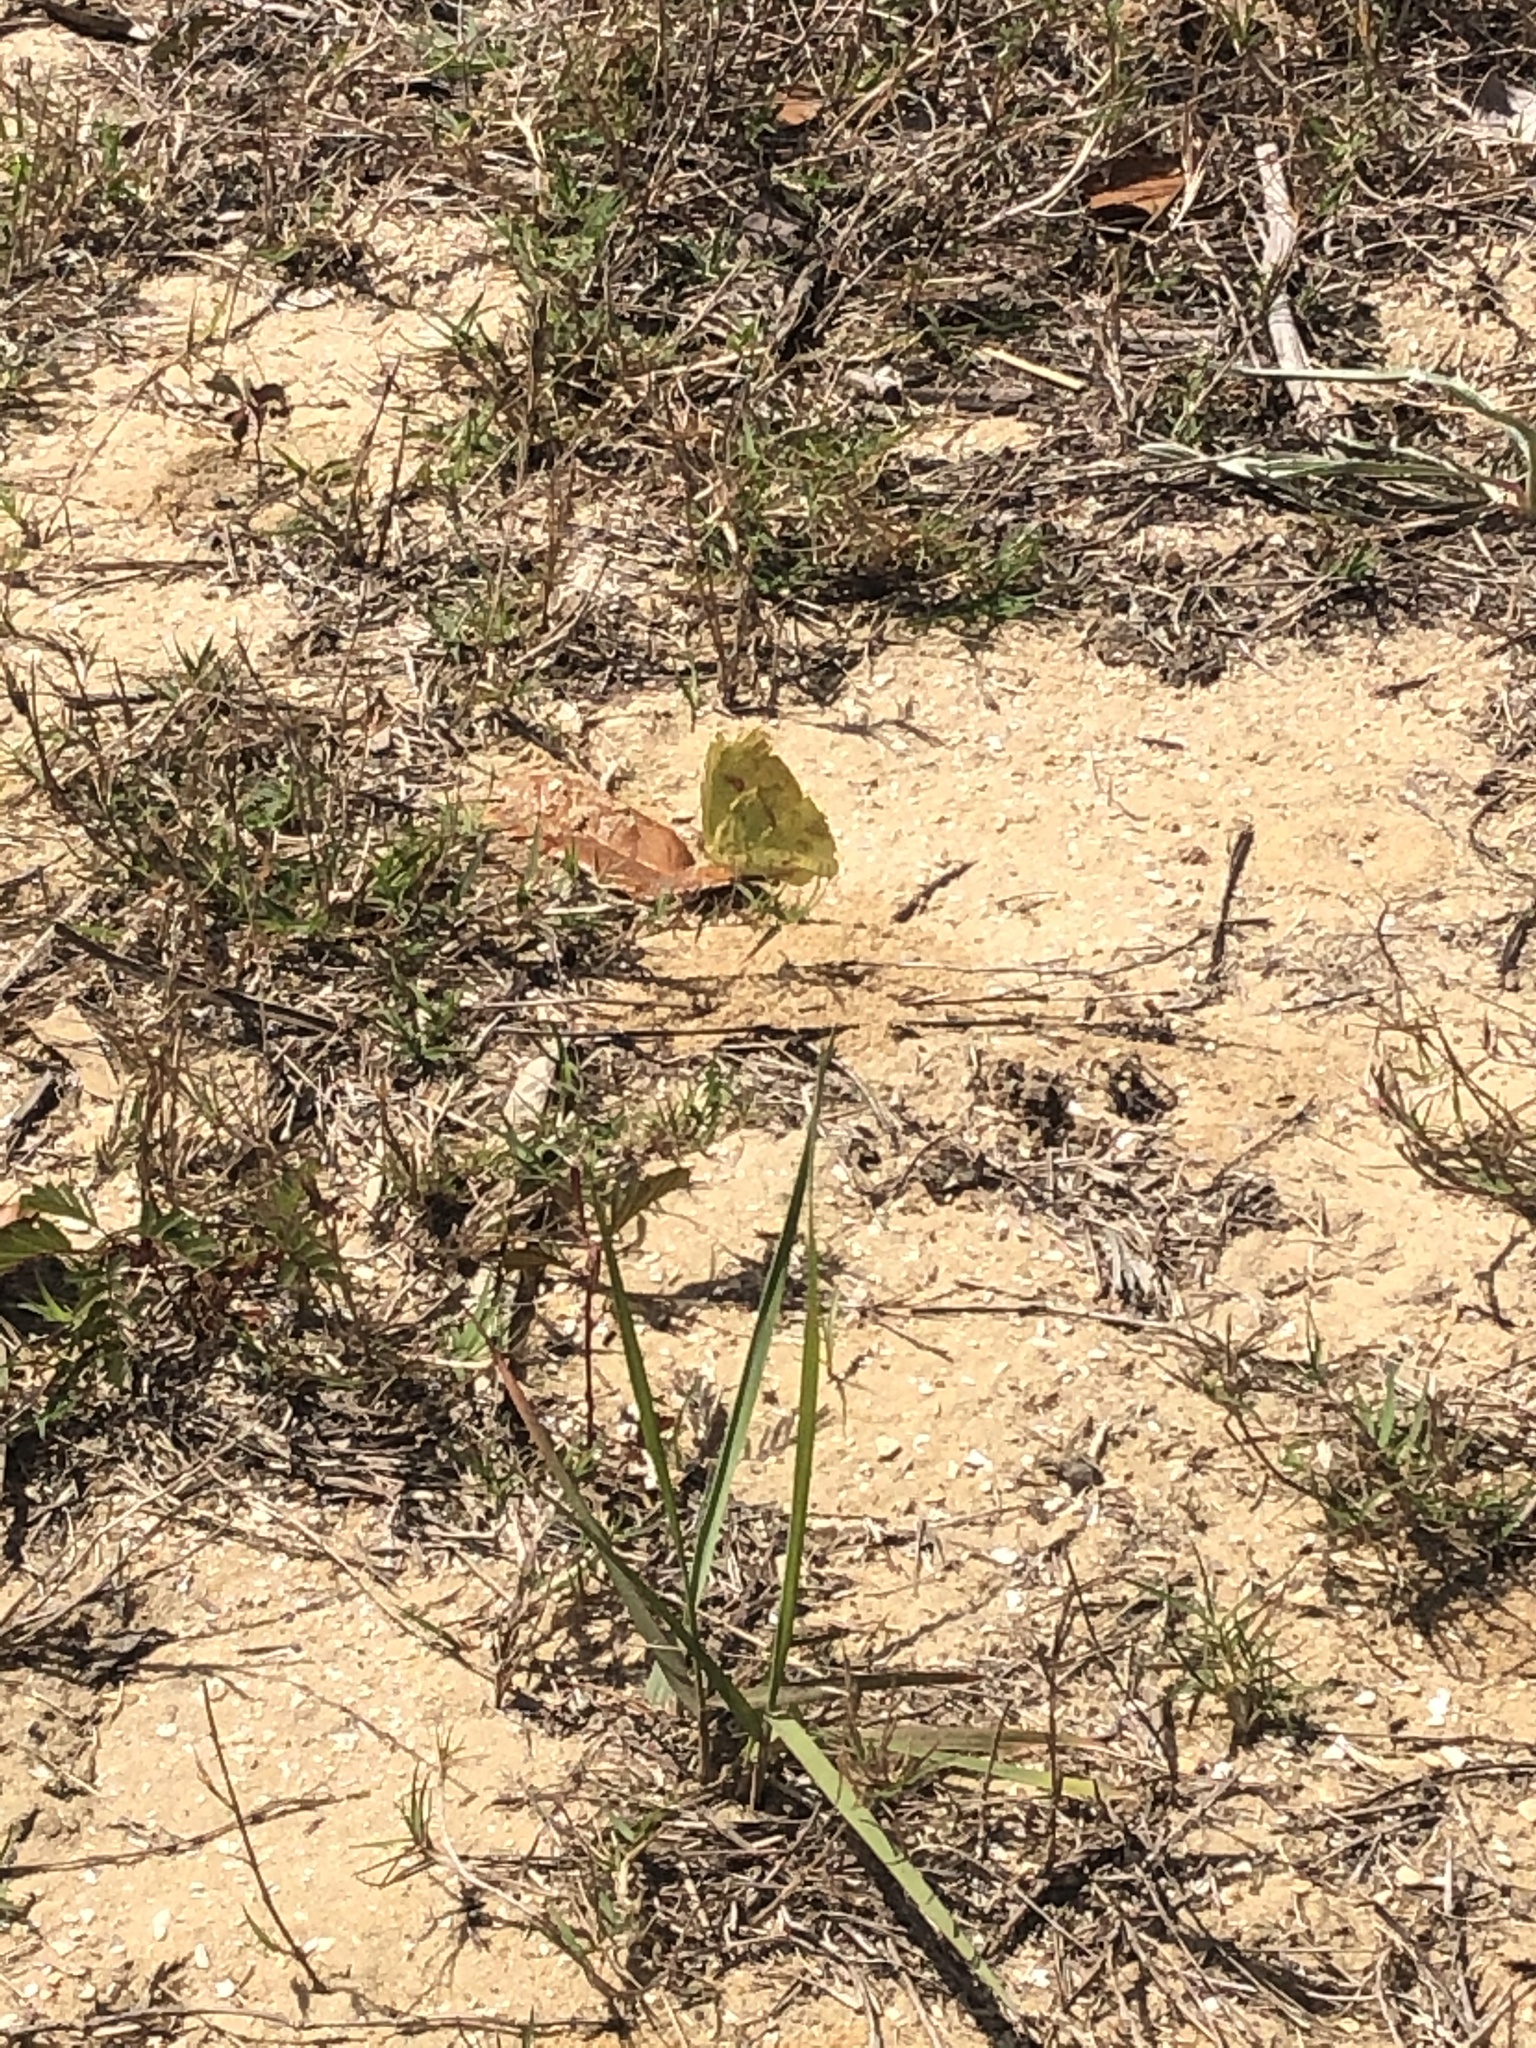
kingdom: Animalia
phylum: Arthropoda
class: Insecta
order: Lepidoptera
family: Pieridae
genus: Phoebis
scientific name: Phoebis sennae
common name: Cloudless sulphur
